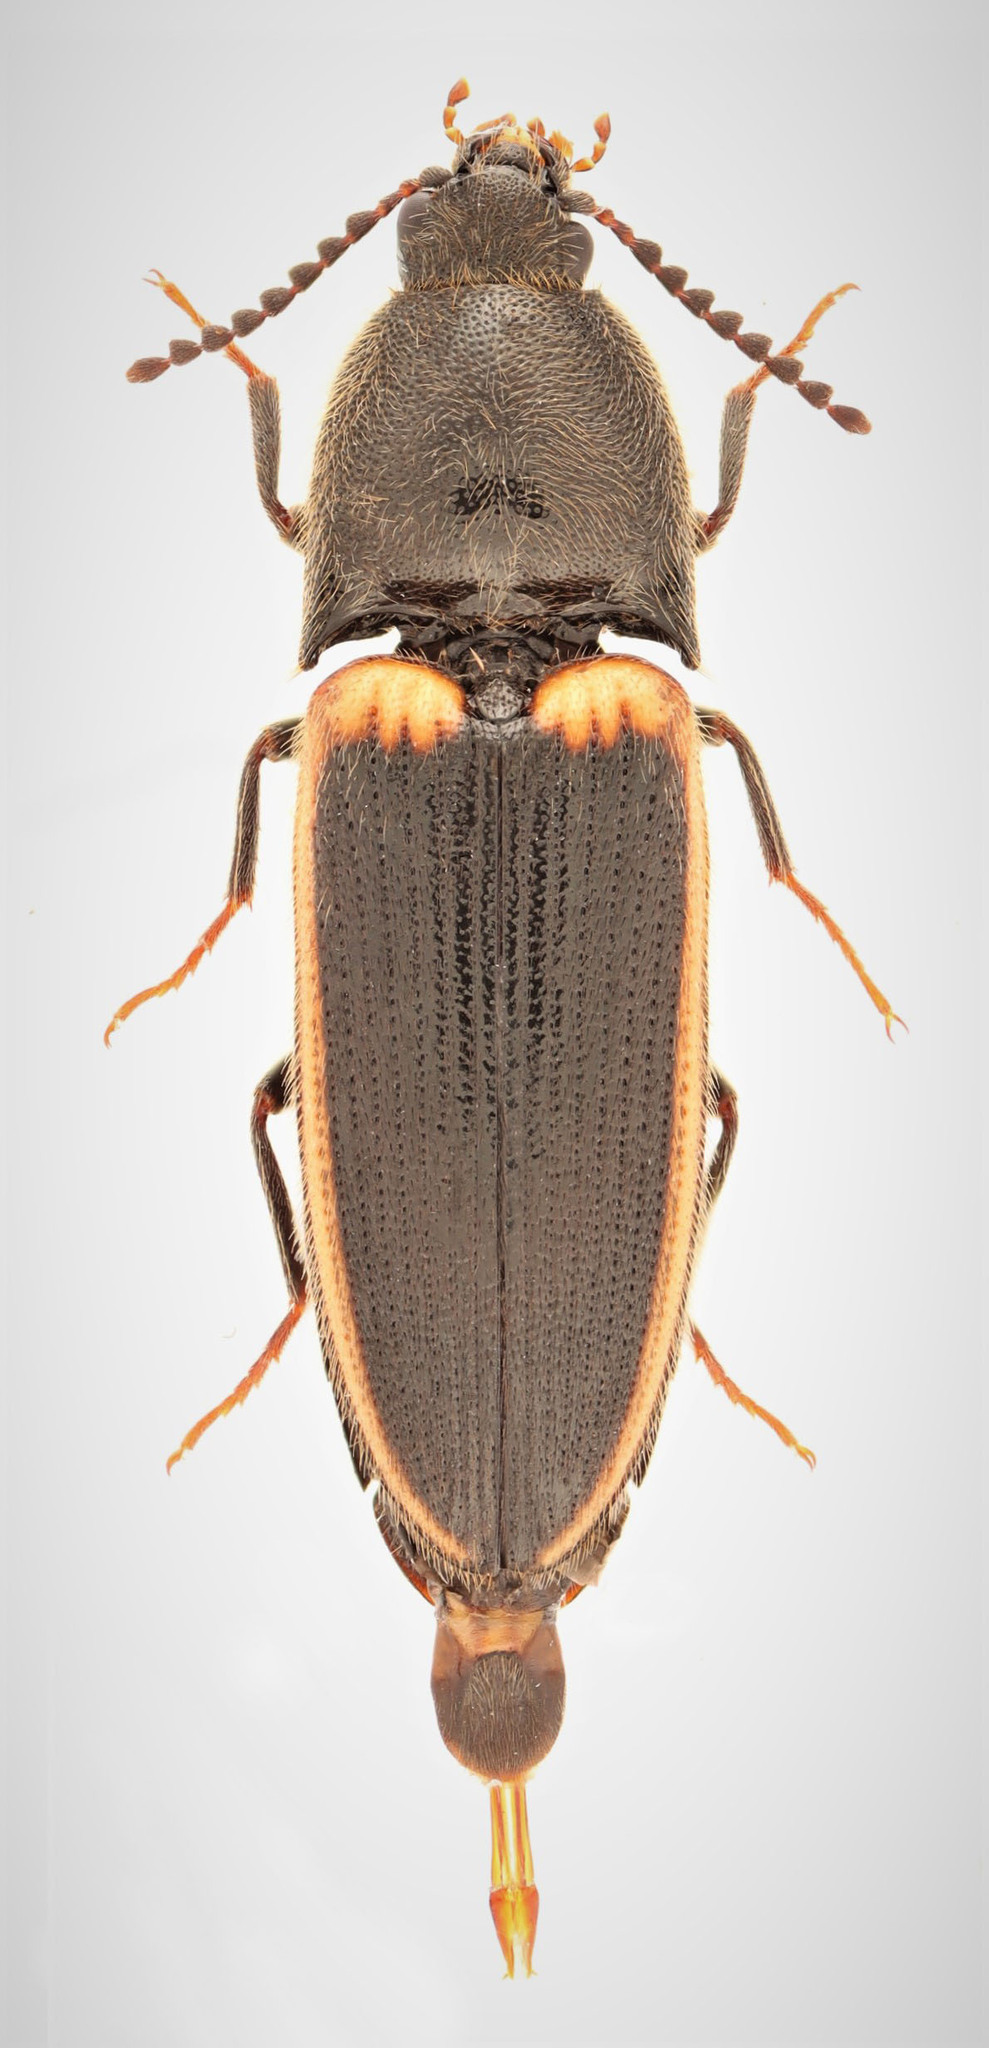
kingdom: Animalia
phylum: Arthropoda
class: Insecta
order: Coleoptera
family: Elateridae
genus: Ampedus
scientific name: Ampedus oblessus
